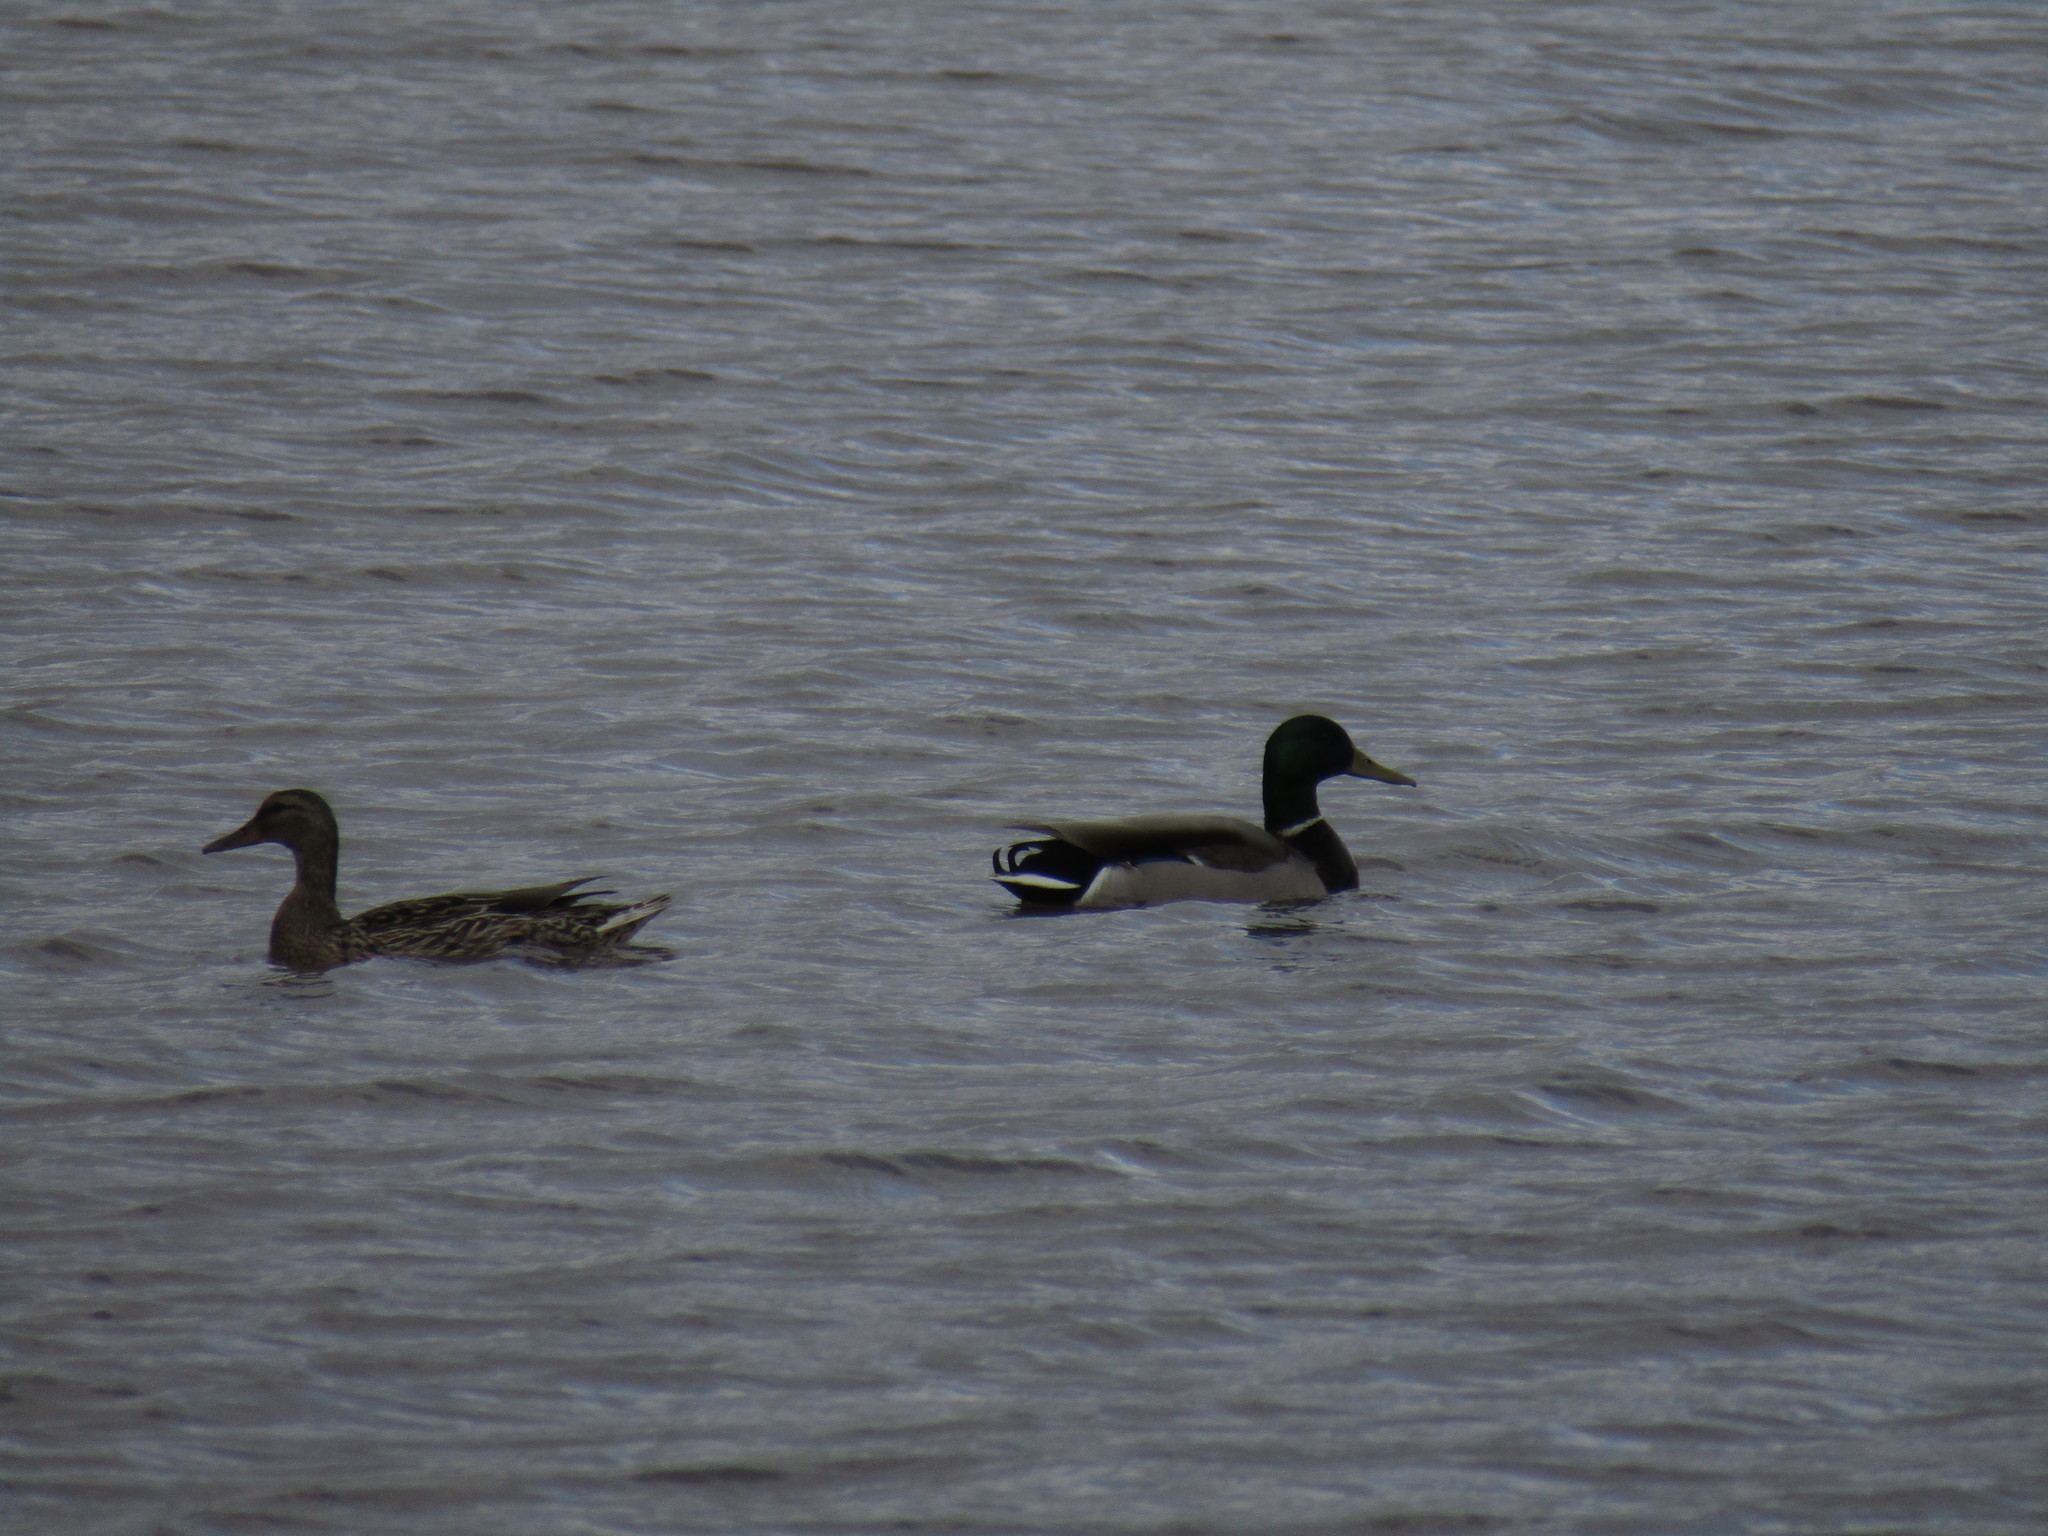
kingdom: Animalia
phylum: Chordata
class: Aves
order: Anseriformes
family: Anatidae
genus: Anas
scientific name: Anas platyrhynchos
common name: Mallard
